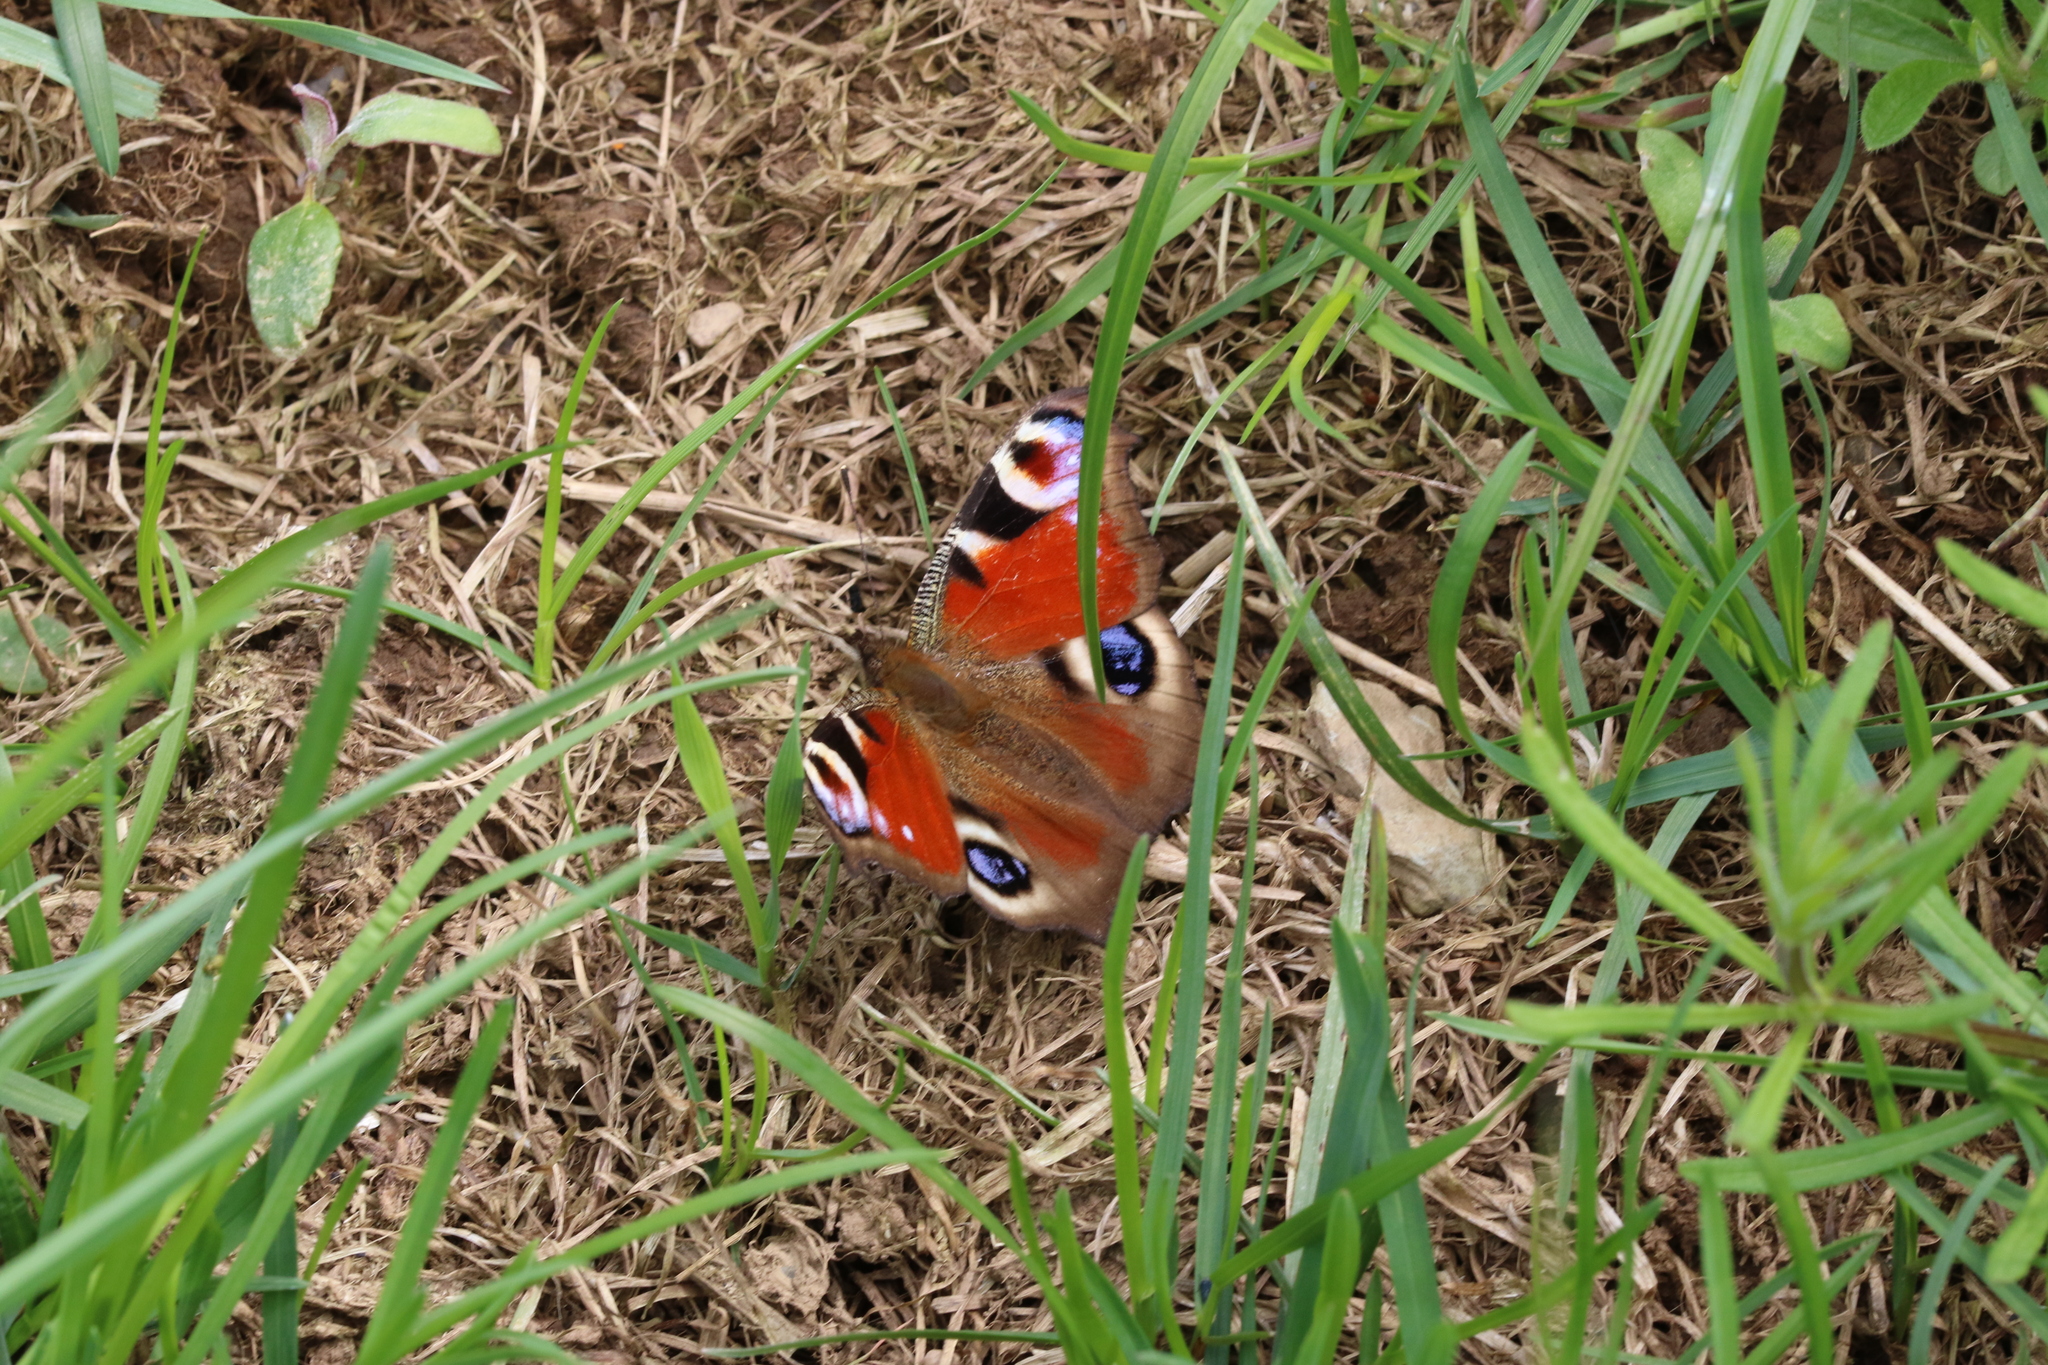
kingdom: Animalia
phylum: Arthropoda
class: Insecta
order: Lepidoptera
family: Nymphalidae
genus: Aglais
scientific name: Aglais io
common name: Peacock
